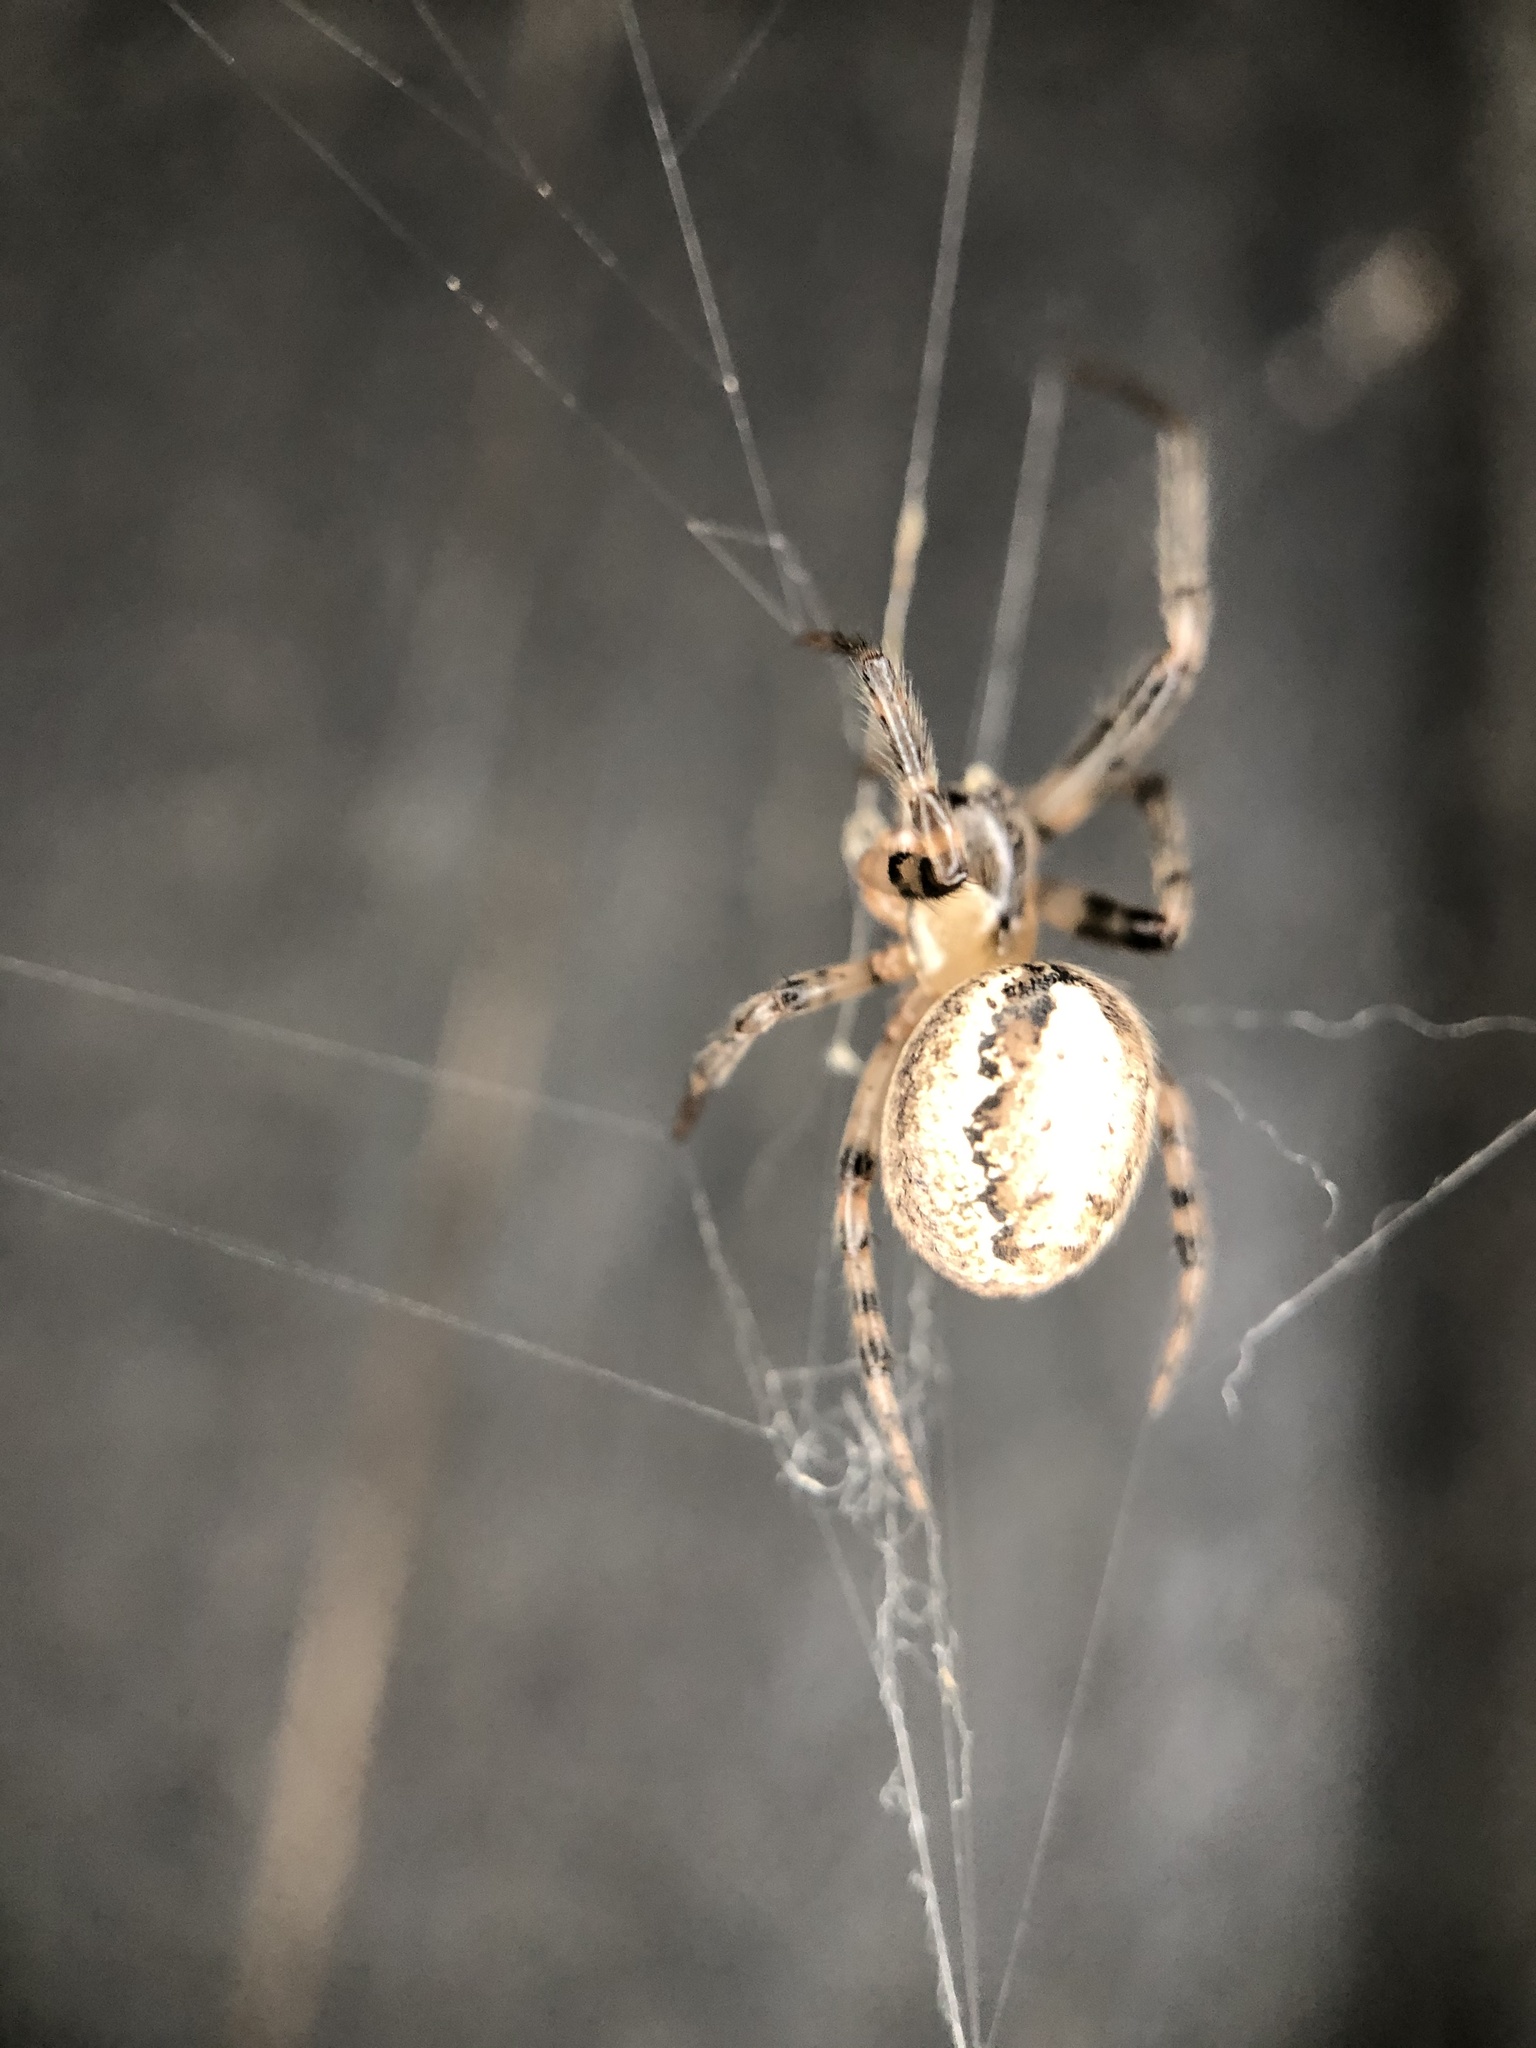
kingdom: Animalia
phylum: Arthropoda
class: Arachnida
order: Araneae
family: Araneidae
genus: Zygiella
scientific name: Zygiella x-notata
